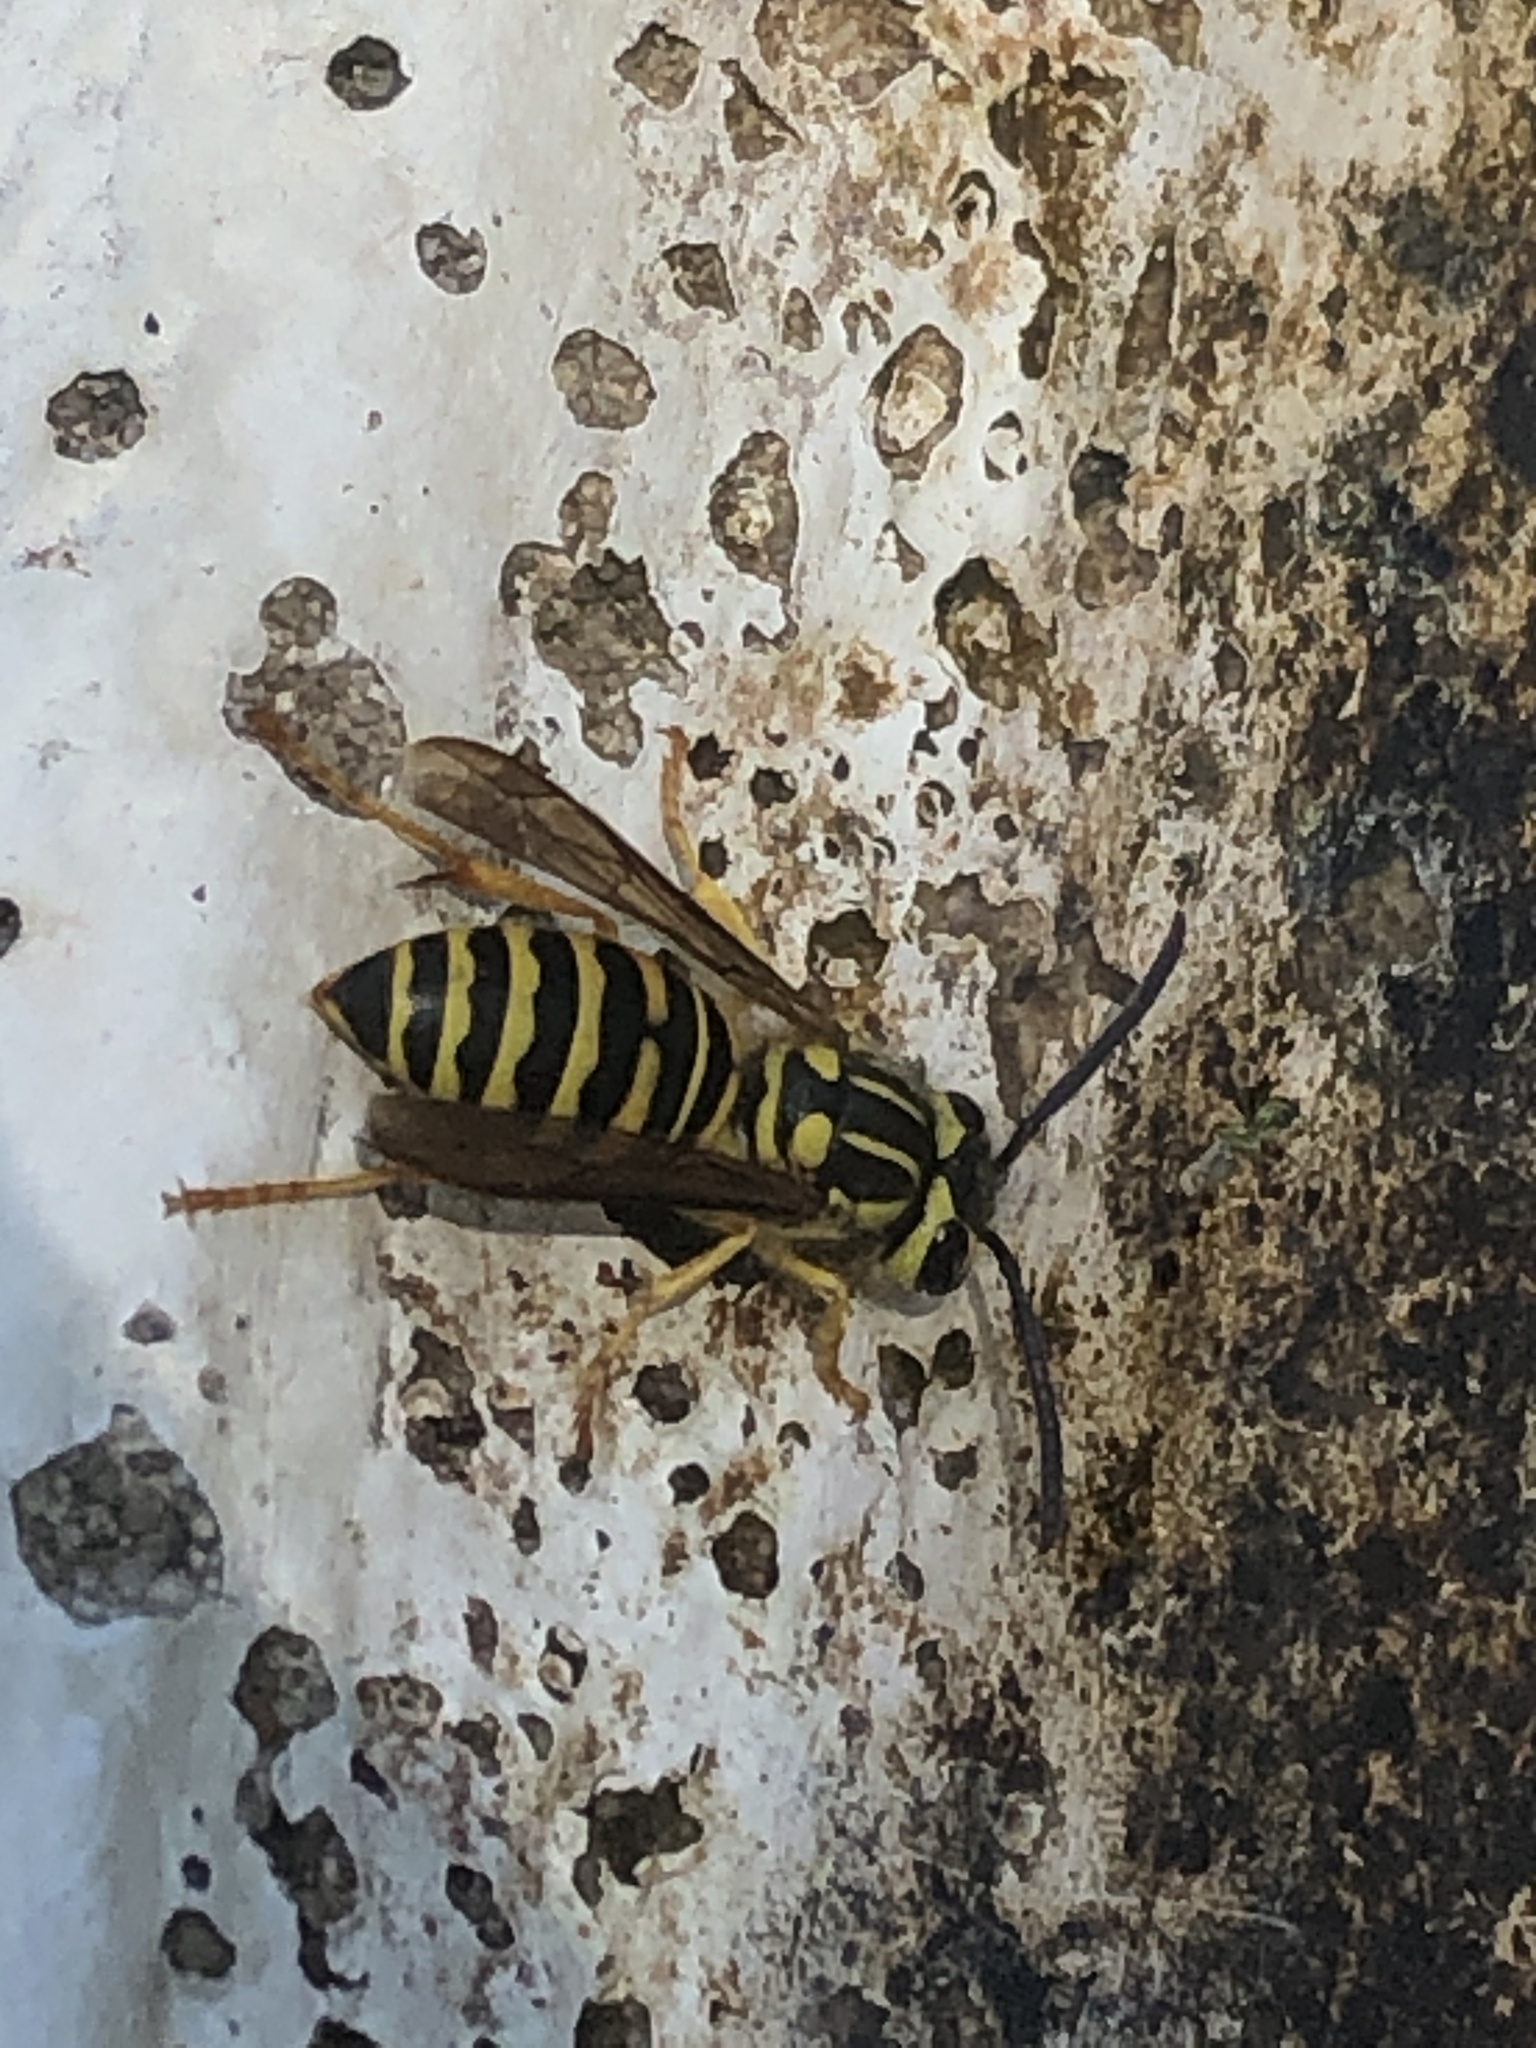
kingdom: Animalia
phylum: Arthropoda
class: Insecta
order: Hymenoptera
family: Vespidae
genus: Vespula
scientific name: Vespula squamosa
